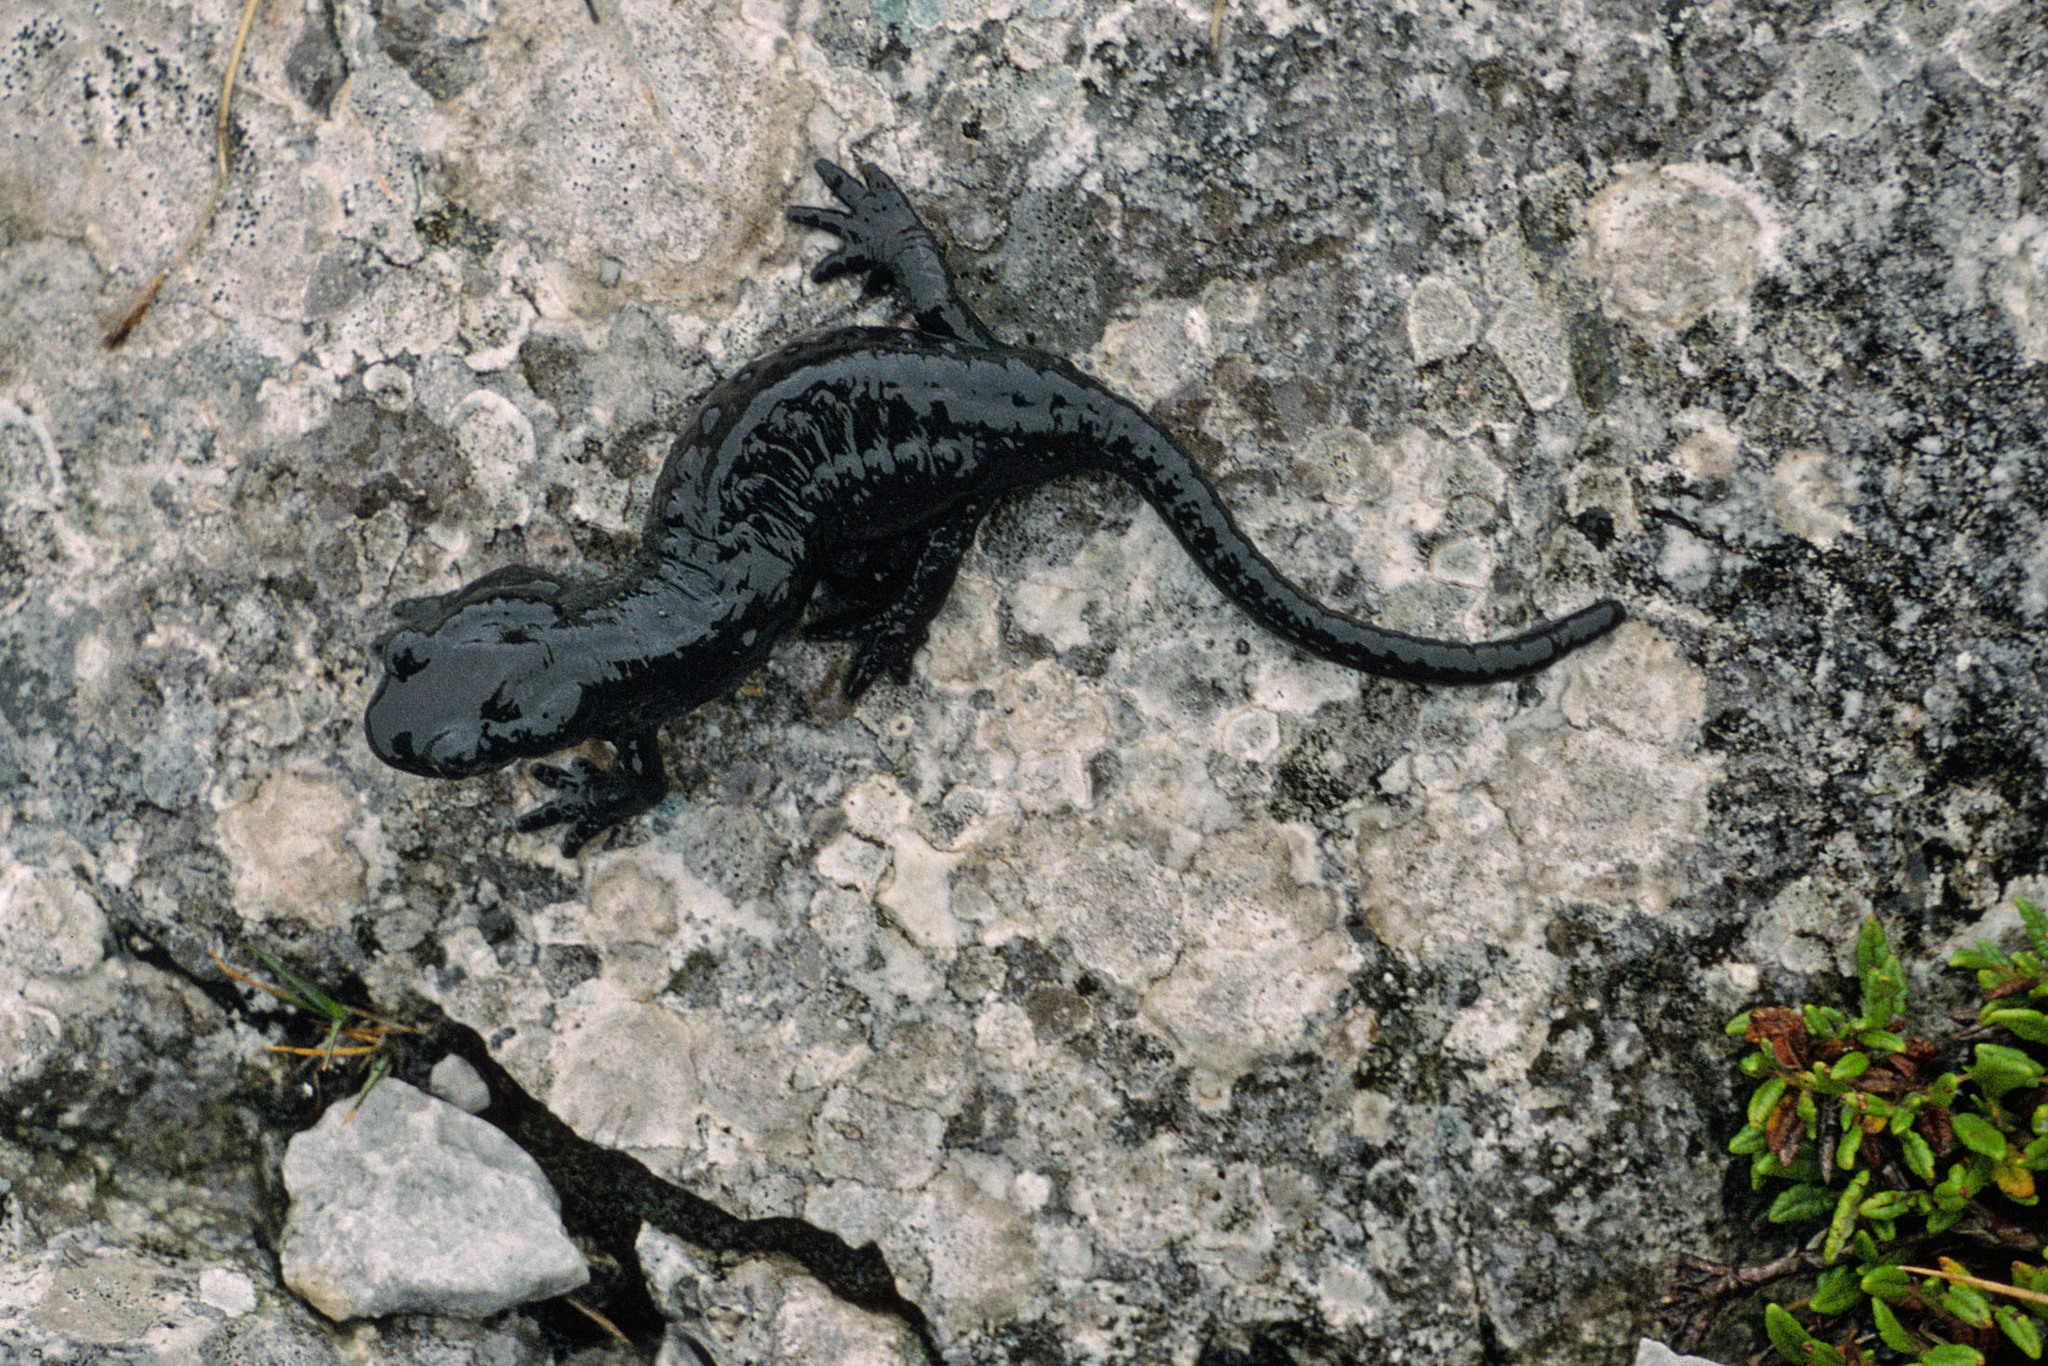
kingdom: Animalia
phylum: Chordata
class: Amphibia
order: Caudata
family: Salamandridae
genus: Salamandra
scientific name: Salamandra atra
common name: Alpine salamander
